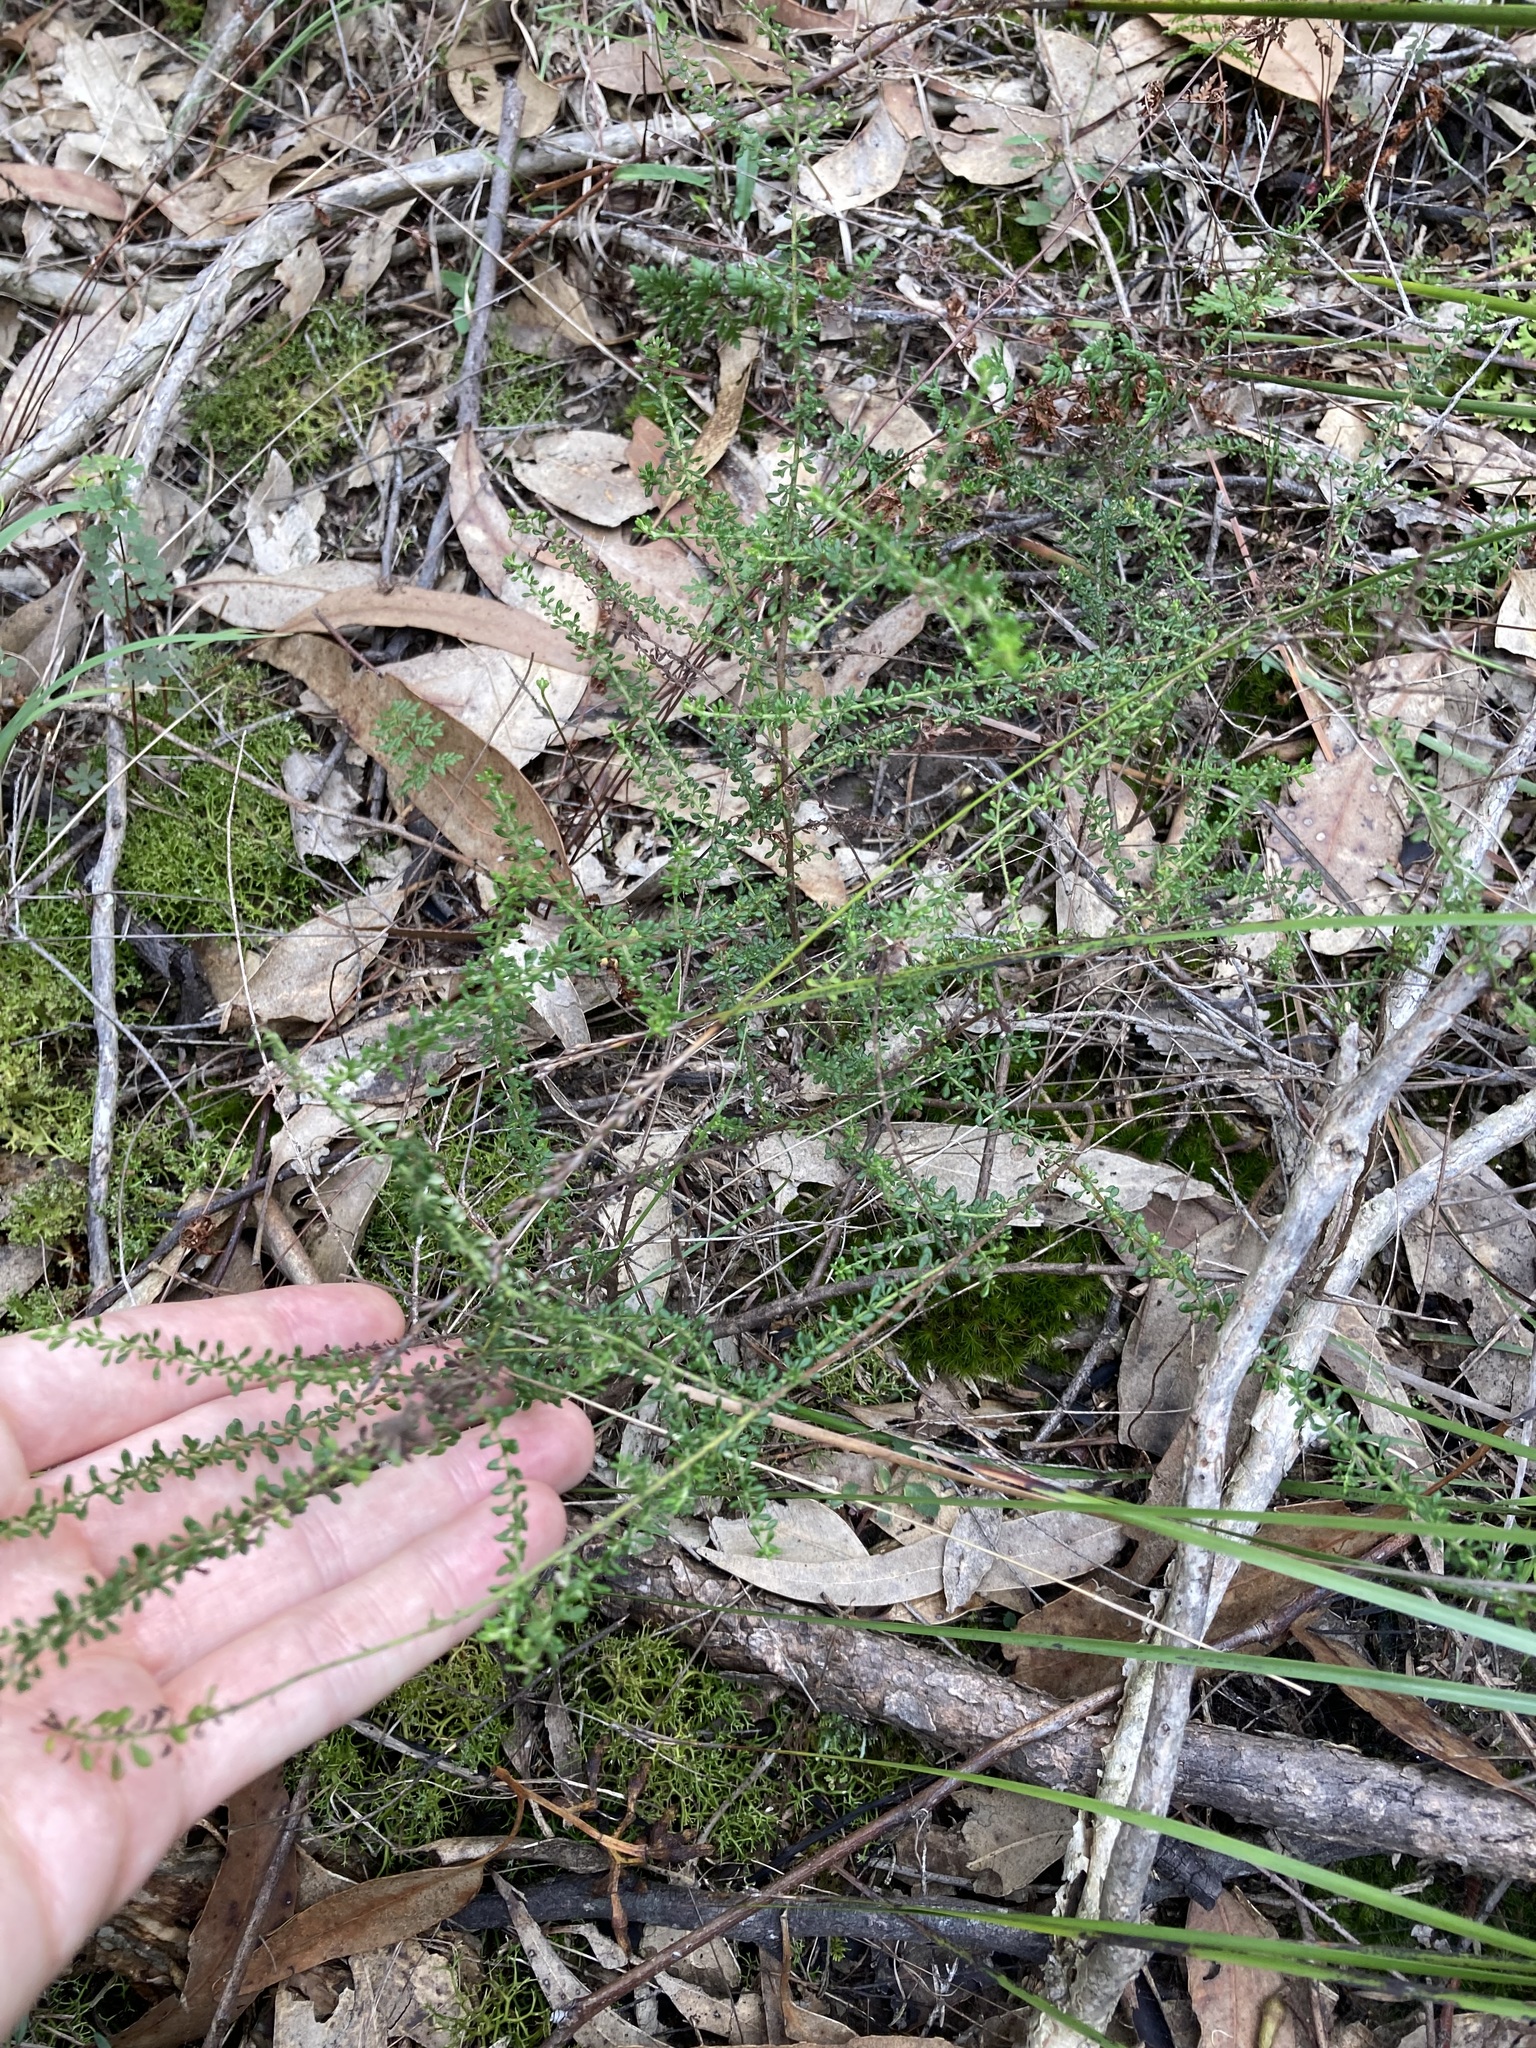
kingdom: Plantae
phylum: Tracheophyta
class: Magnoliopsida
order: Asterales
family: Asteraceae
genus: Olearia
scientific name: Olearia microphylla
